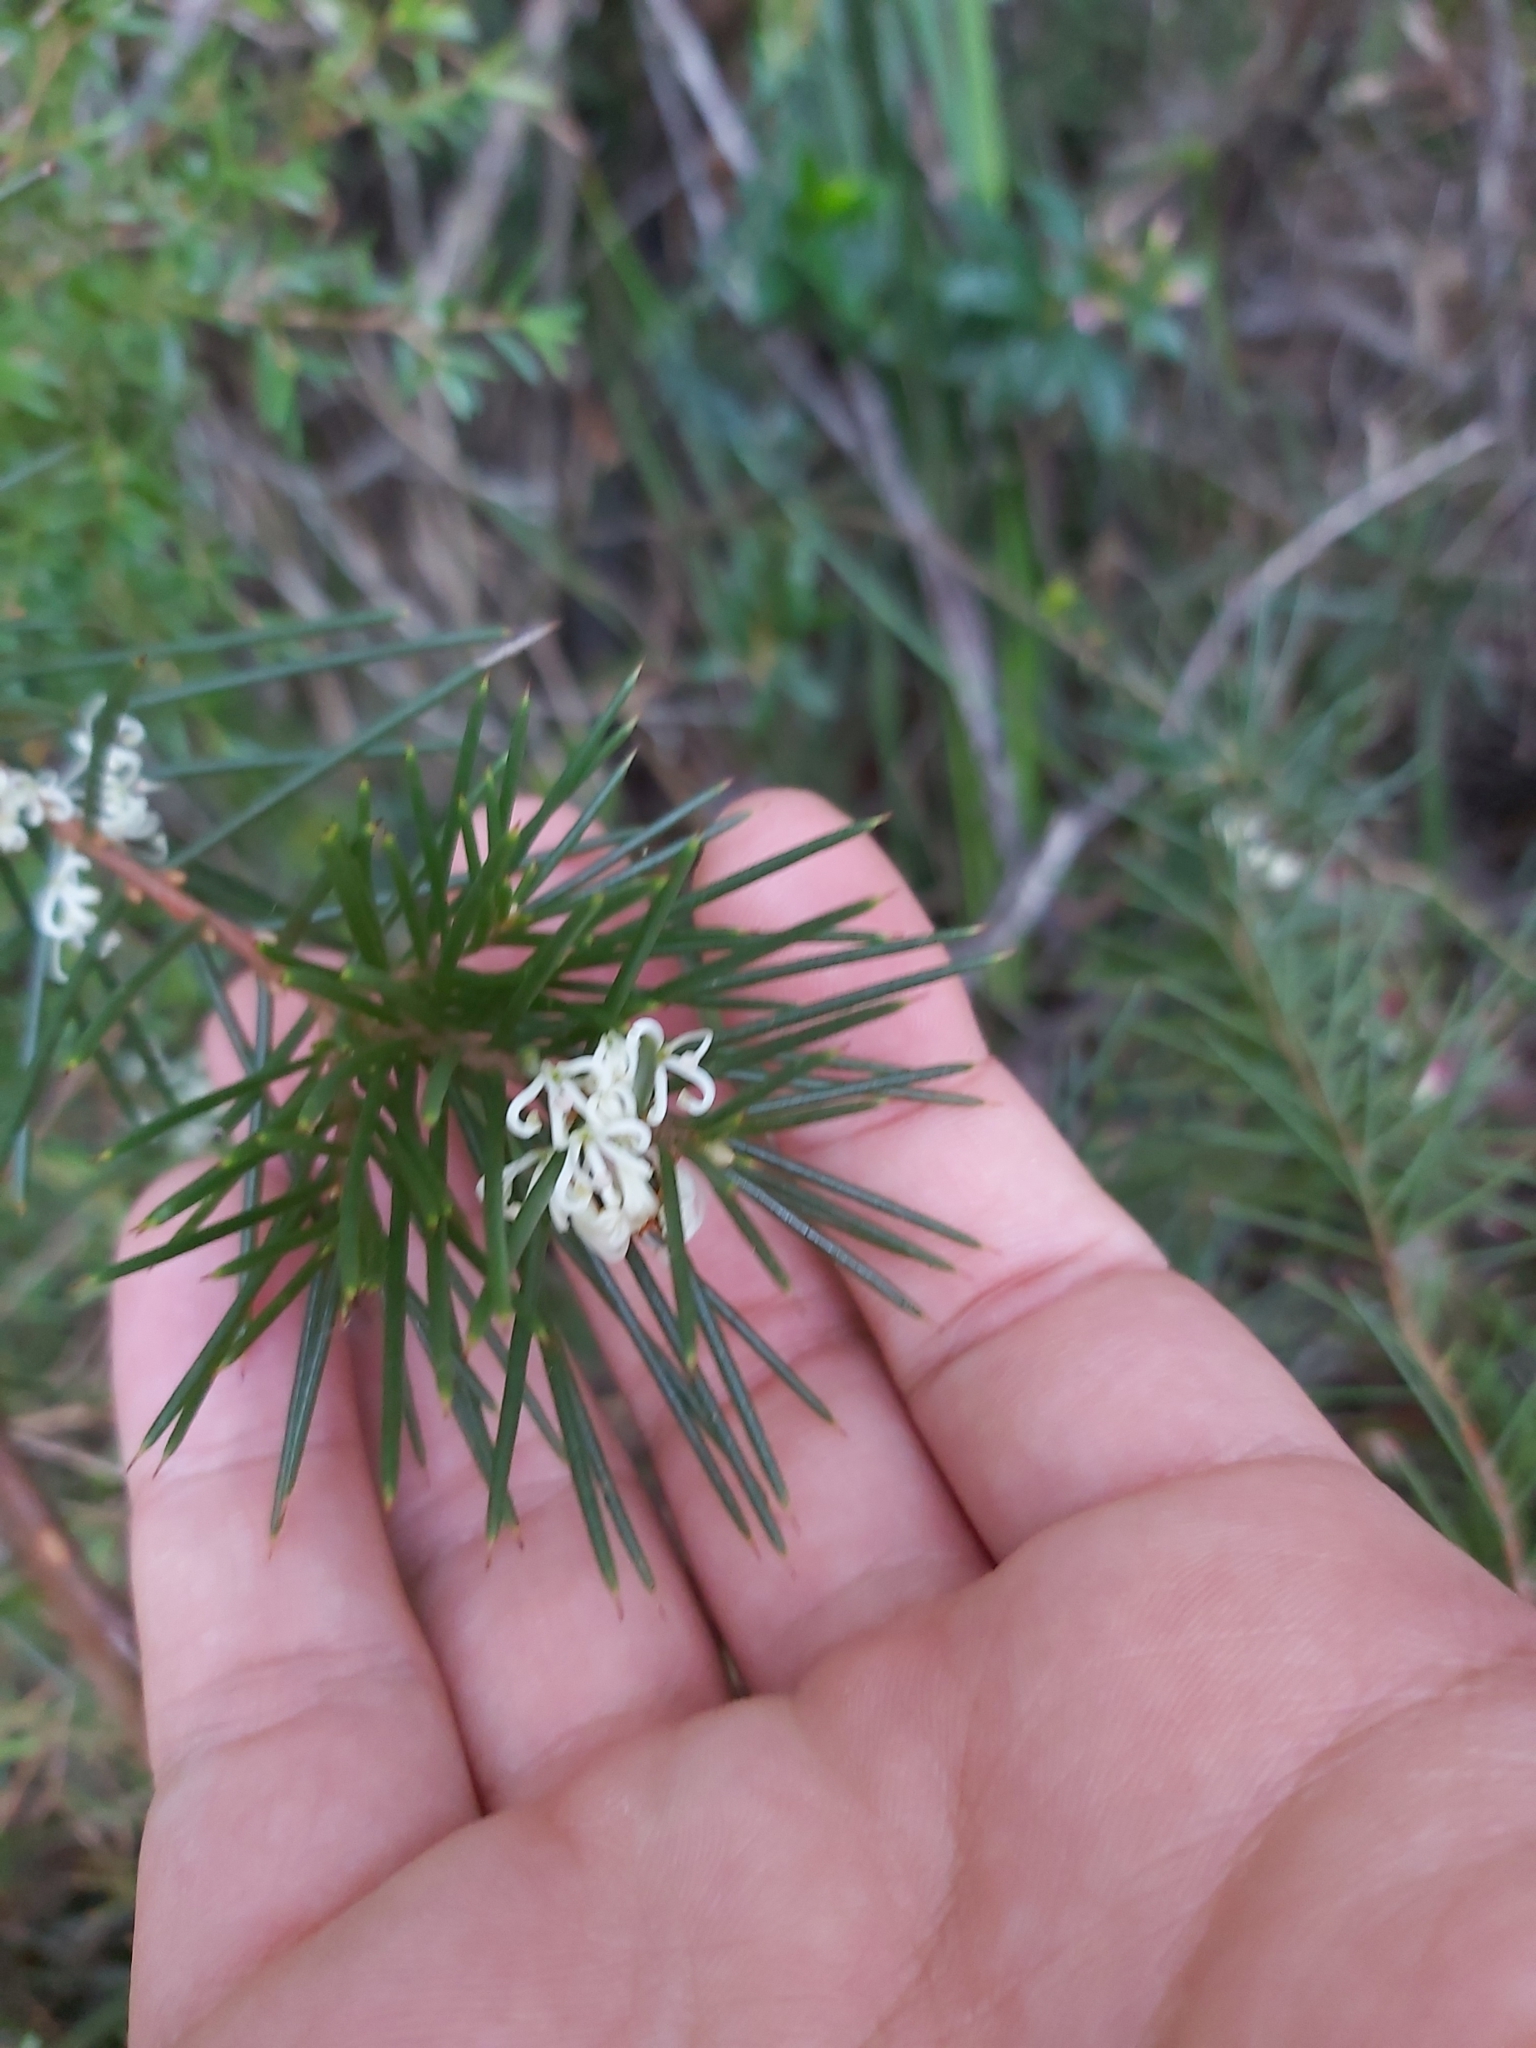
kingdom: Plantae
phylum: Tracheophyta
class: Magnoliopsida
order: Proteales
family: Proteaceae
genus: Hakea
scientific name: Hakea sericea
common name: Needle bush
